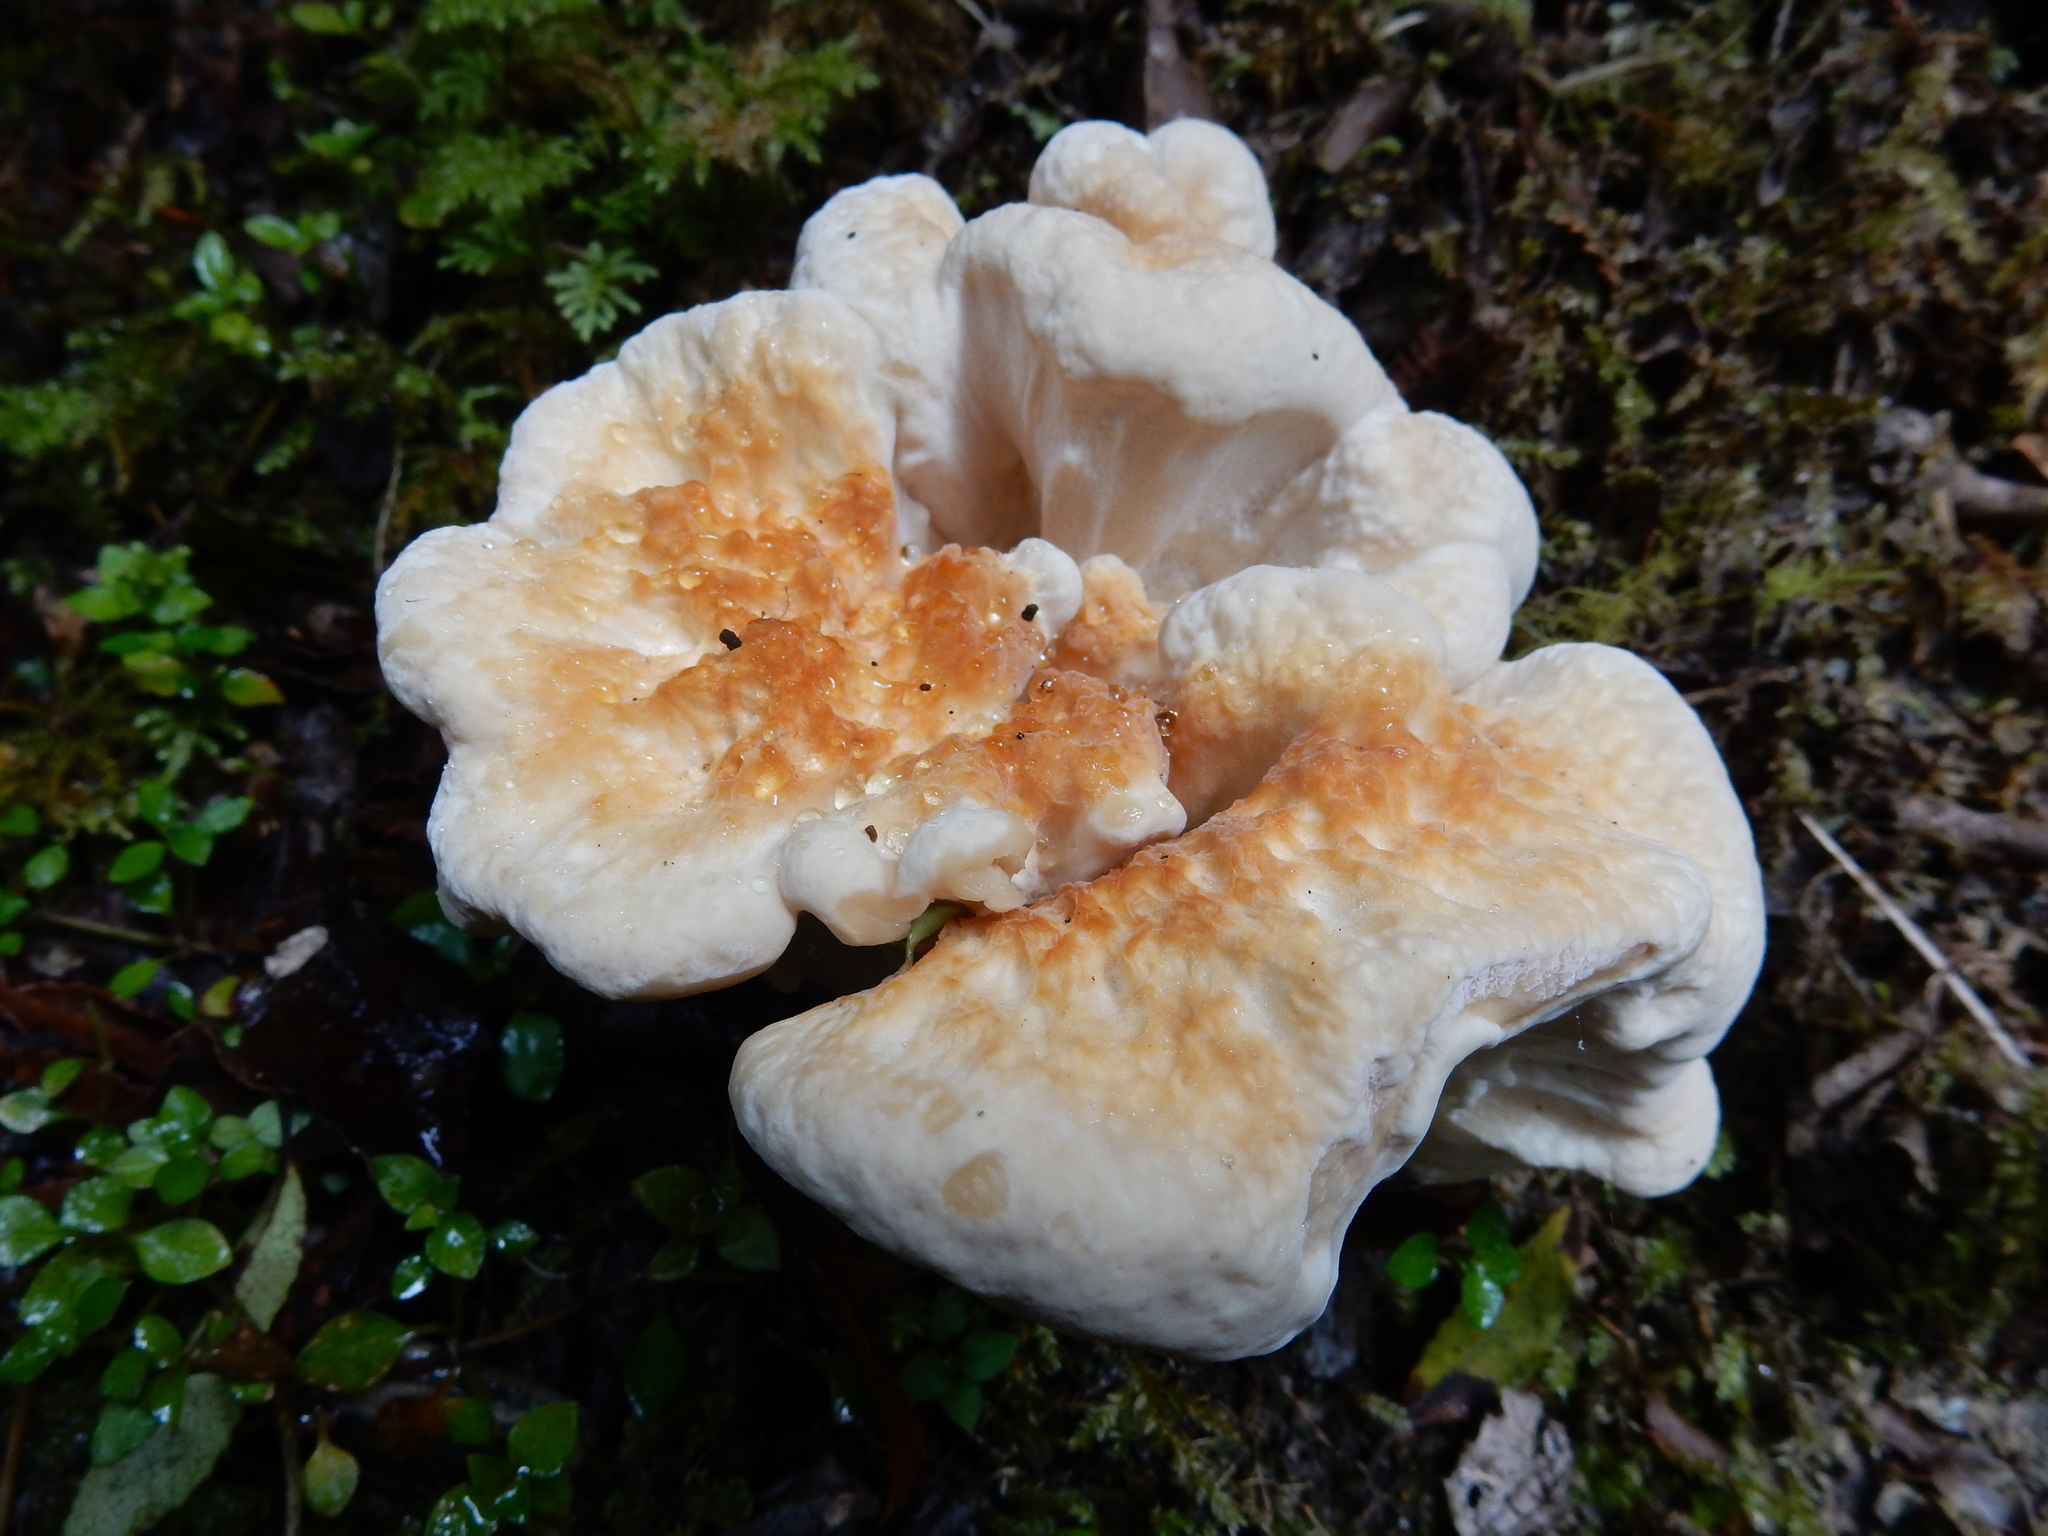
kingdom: Fungi
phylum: Basidiomycota
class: Agaricomycetes
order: Russulales
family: Bondarzewiaceae
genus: Bondarzewia
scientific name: Bondarzewia propria
